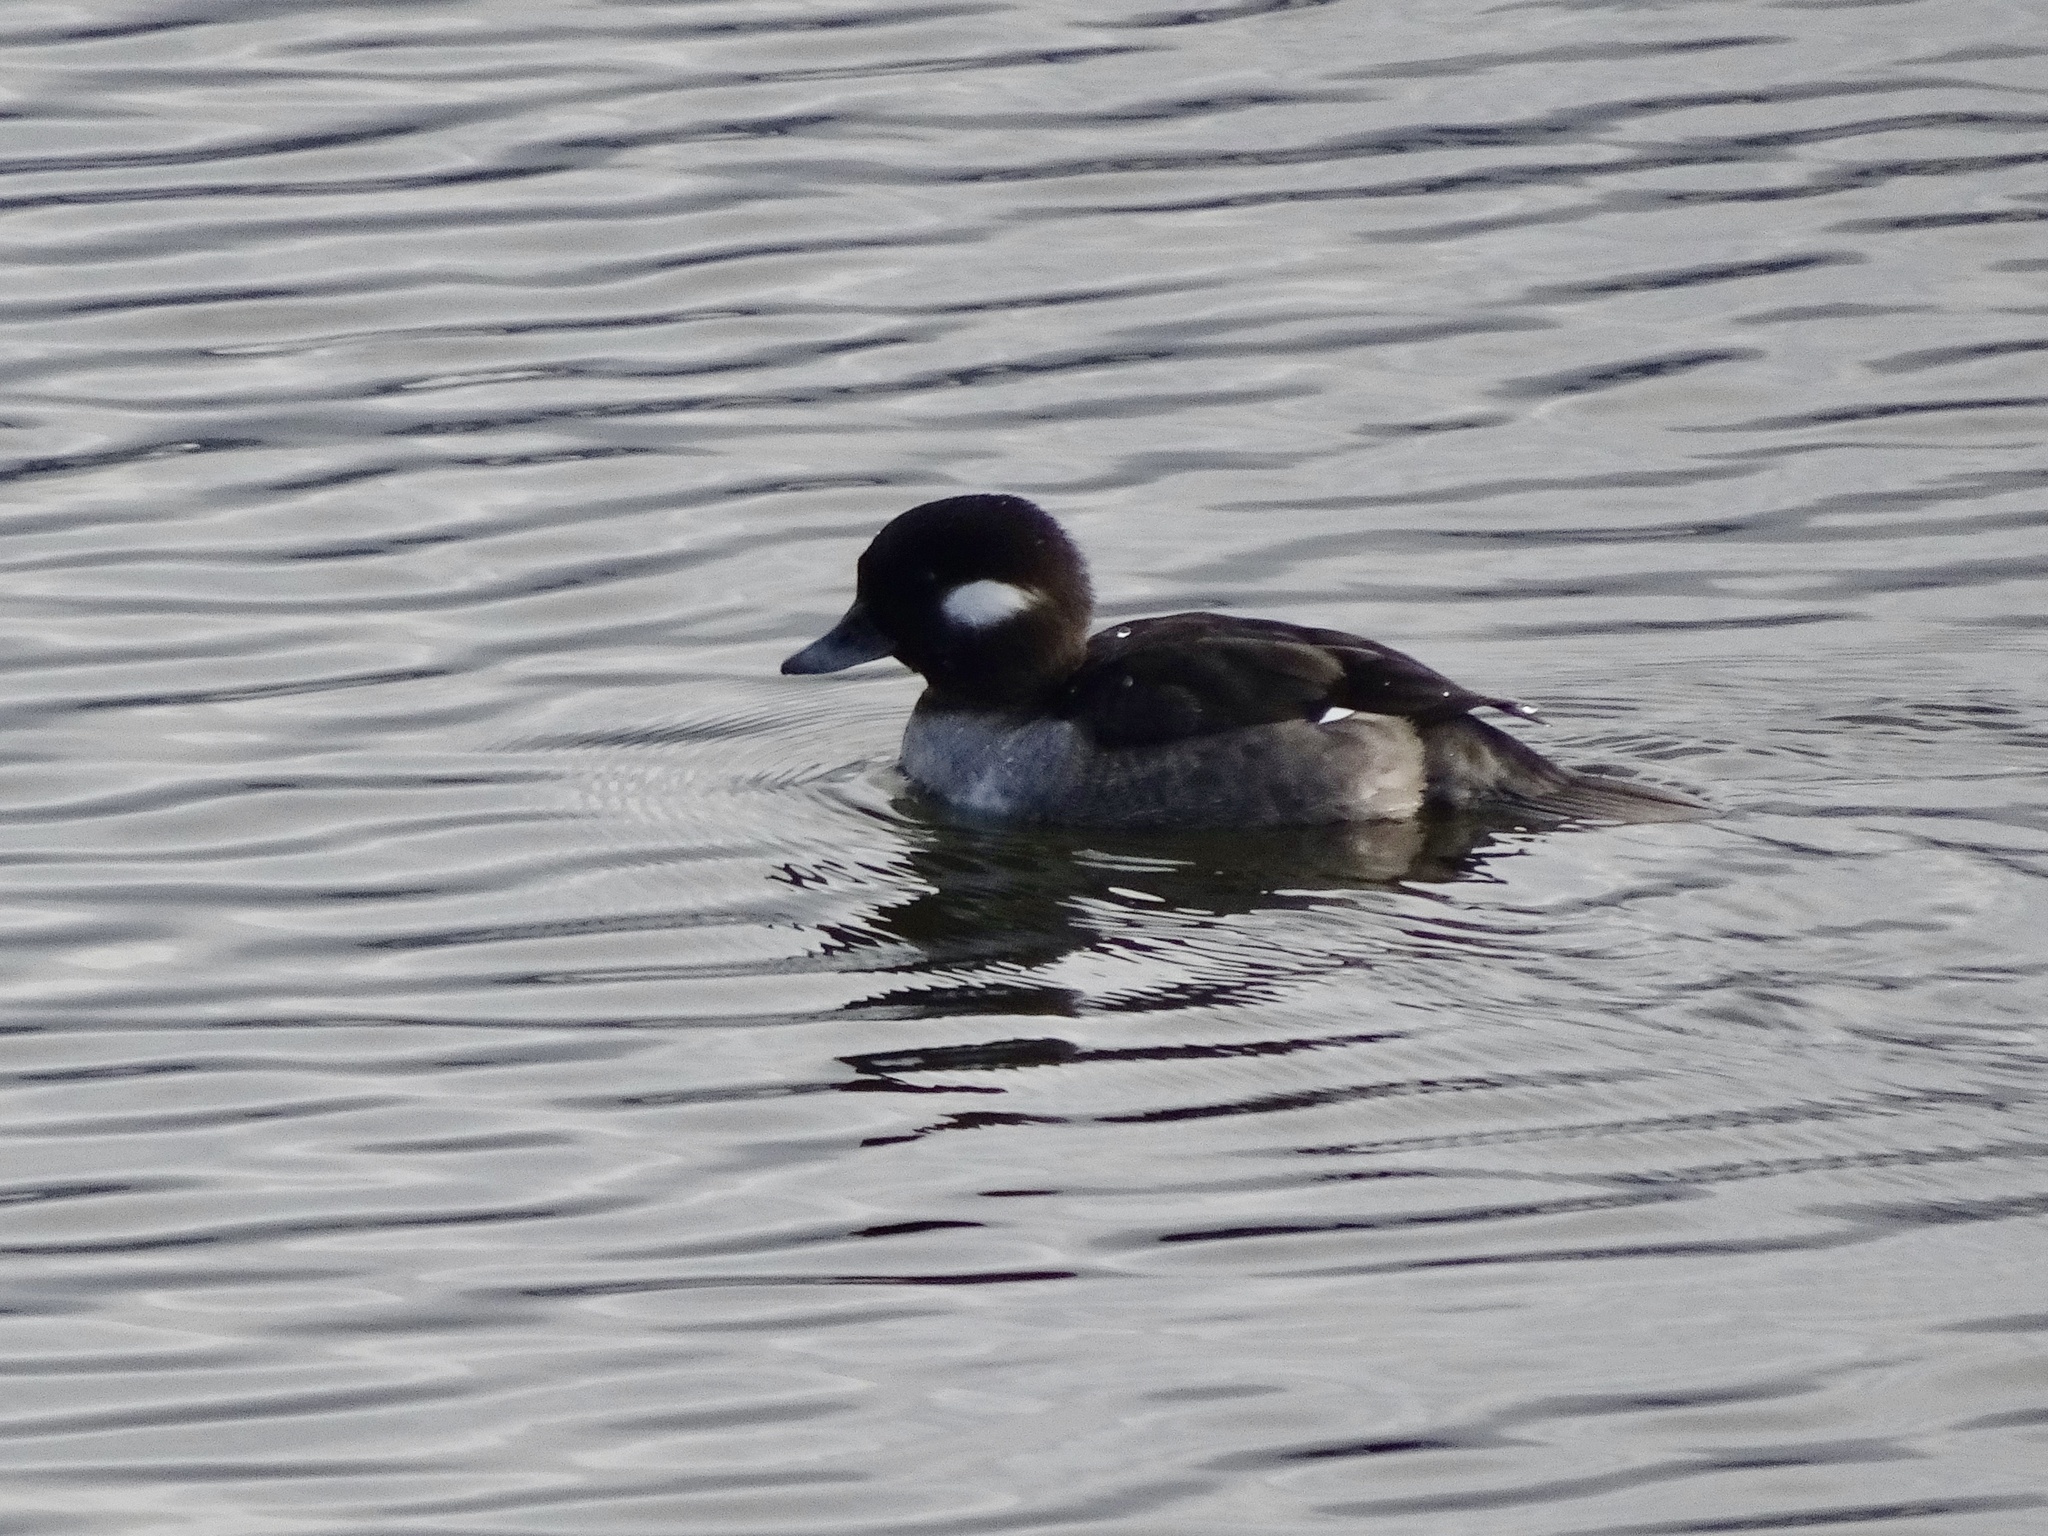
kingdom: Animalia
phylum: Chordata
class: Aves
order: Anseriformes
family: Anatidae
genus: Bucephala
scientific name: Bucephala albeola
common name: Bufflehead
